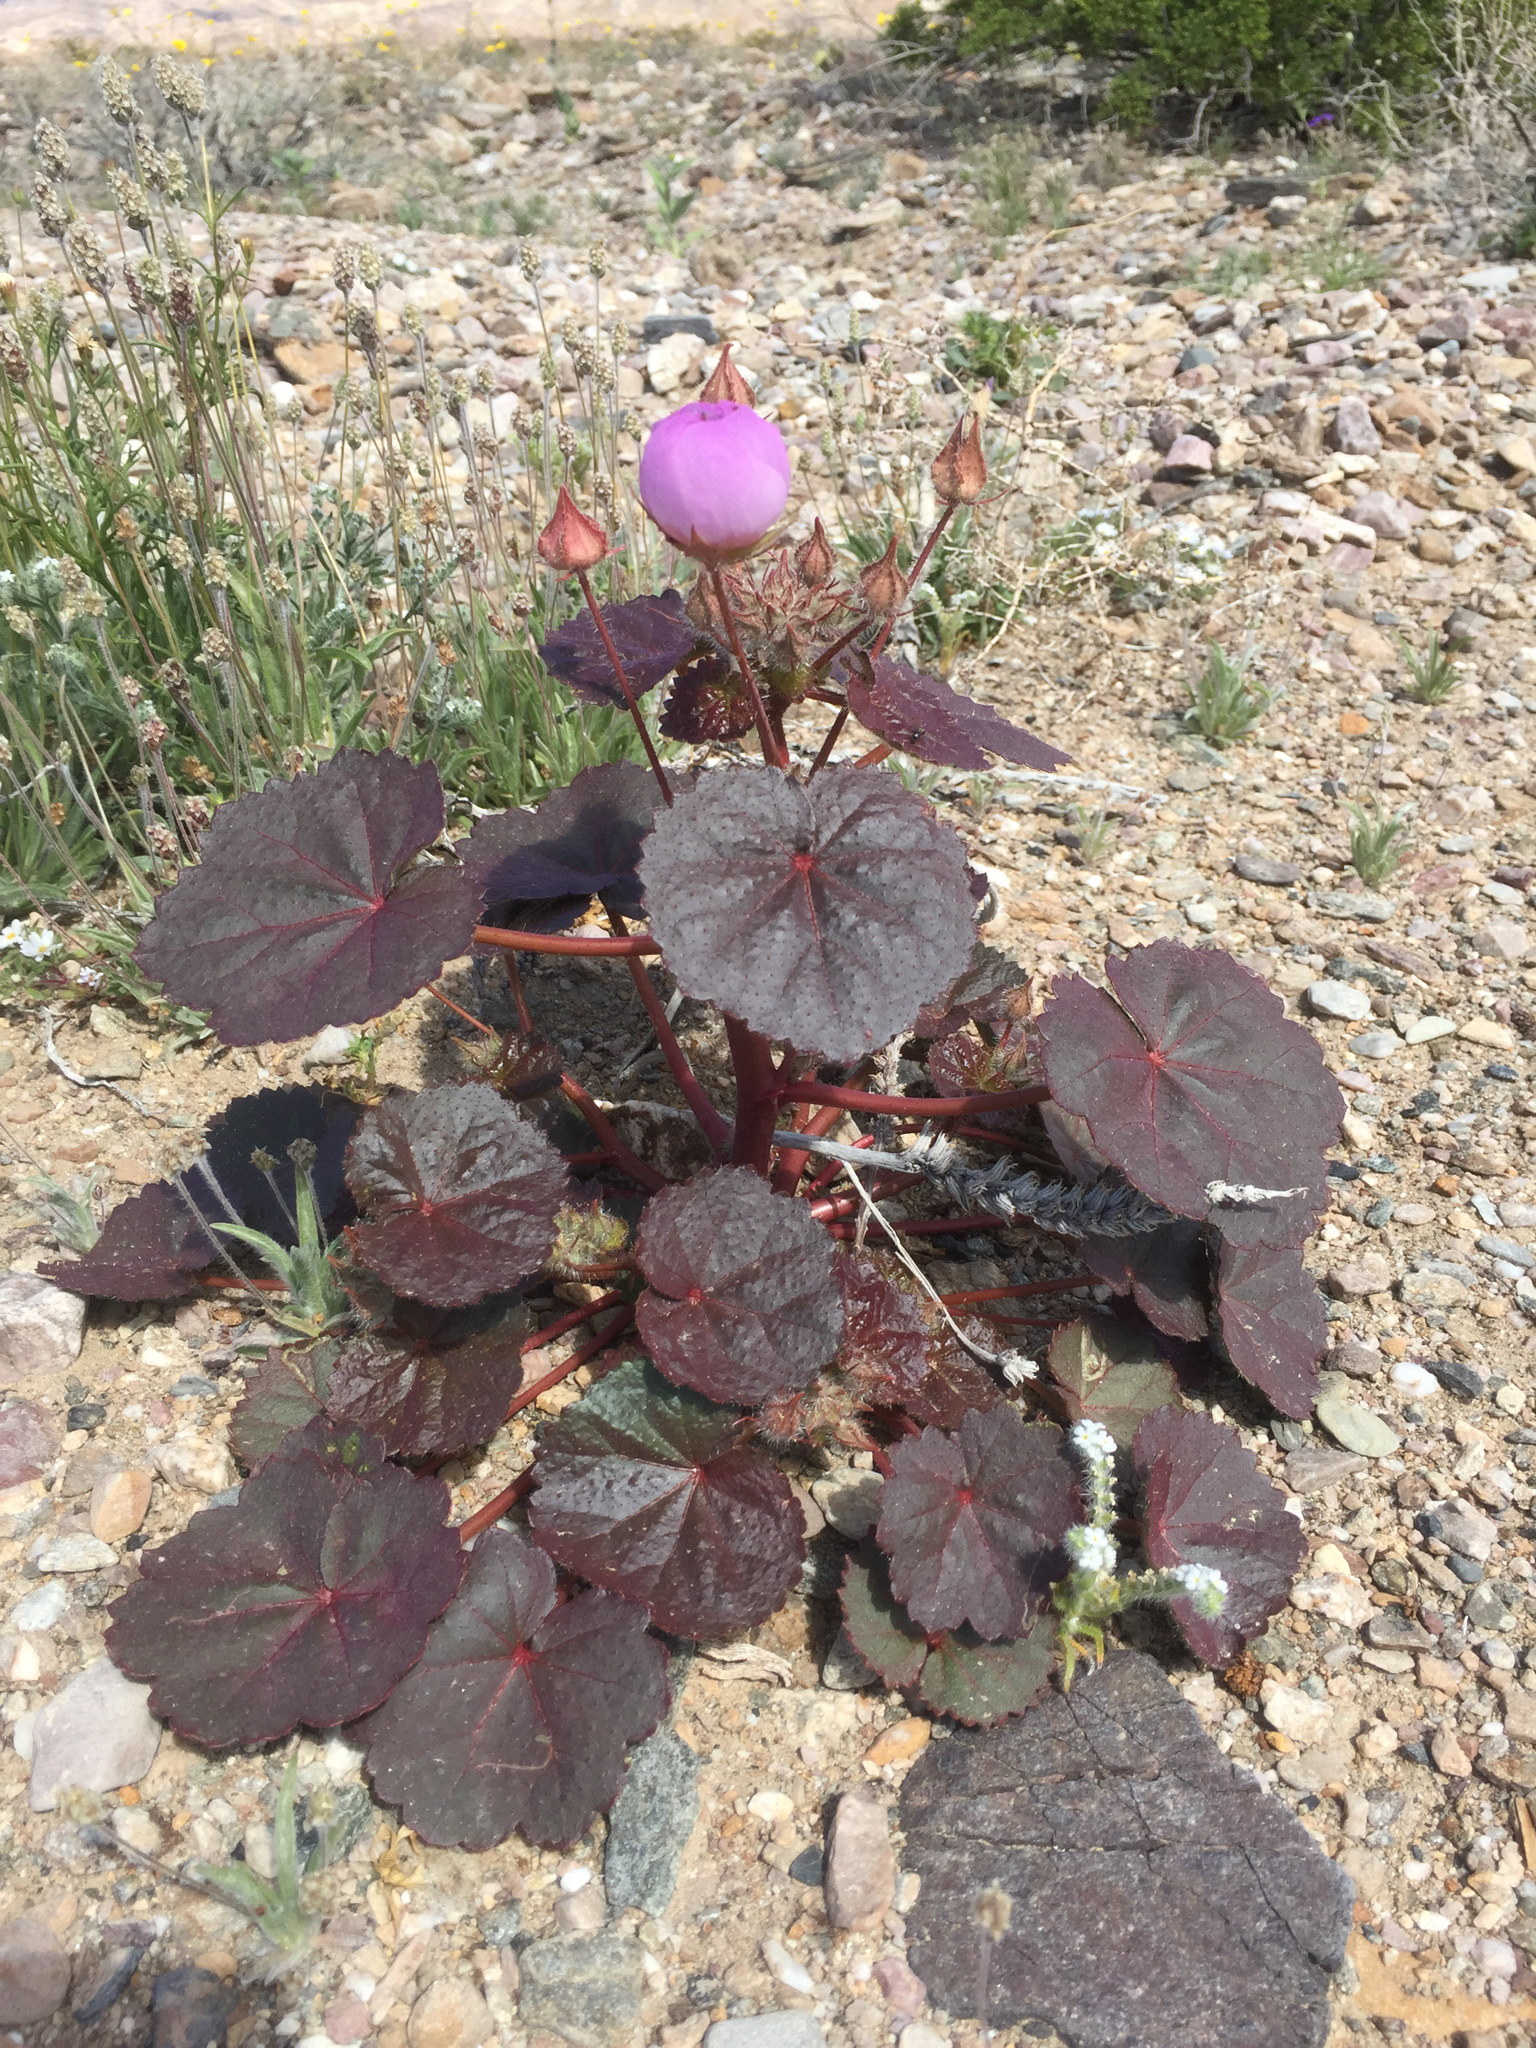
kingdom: Plantae
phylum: Tracheophyta
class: Magnoliopsida
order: Malvales
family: Malvaceae
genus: Eremalche
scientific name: Eremalche rotundifolia
